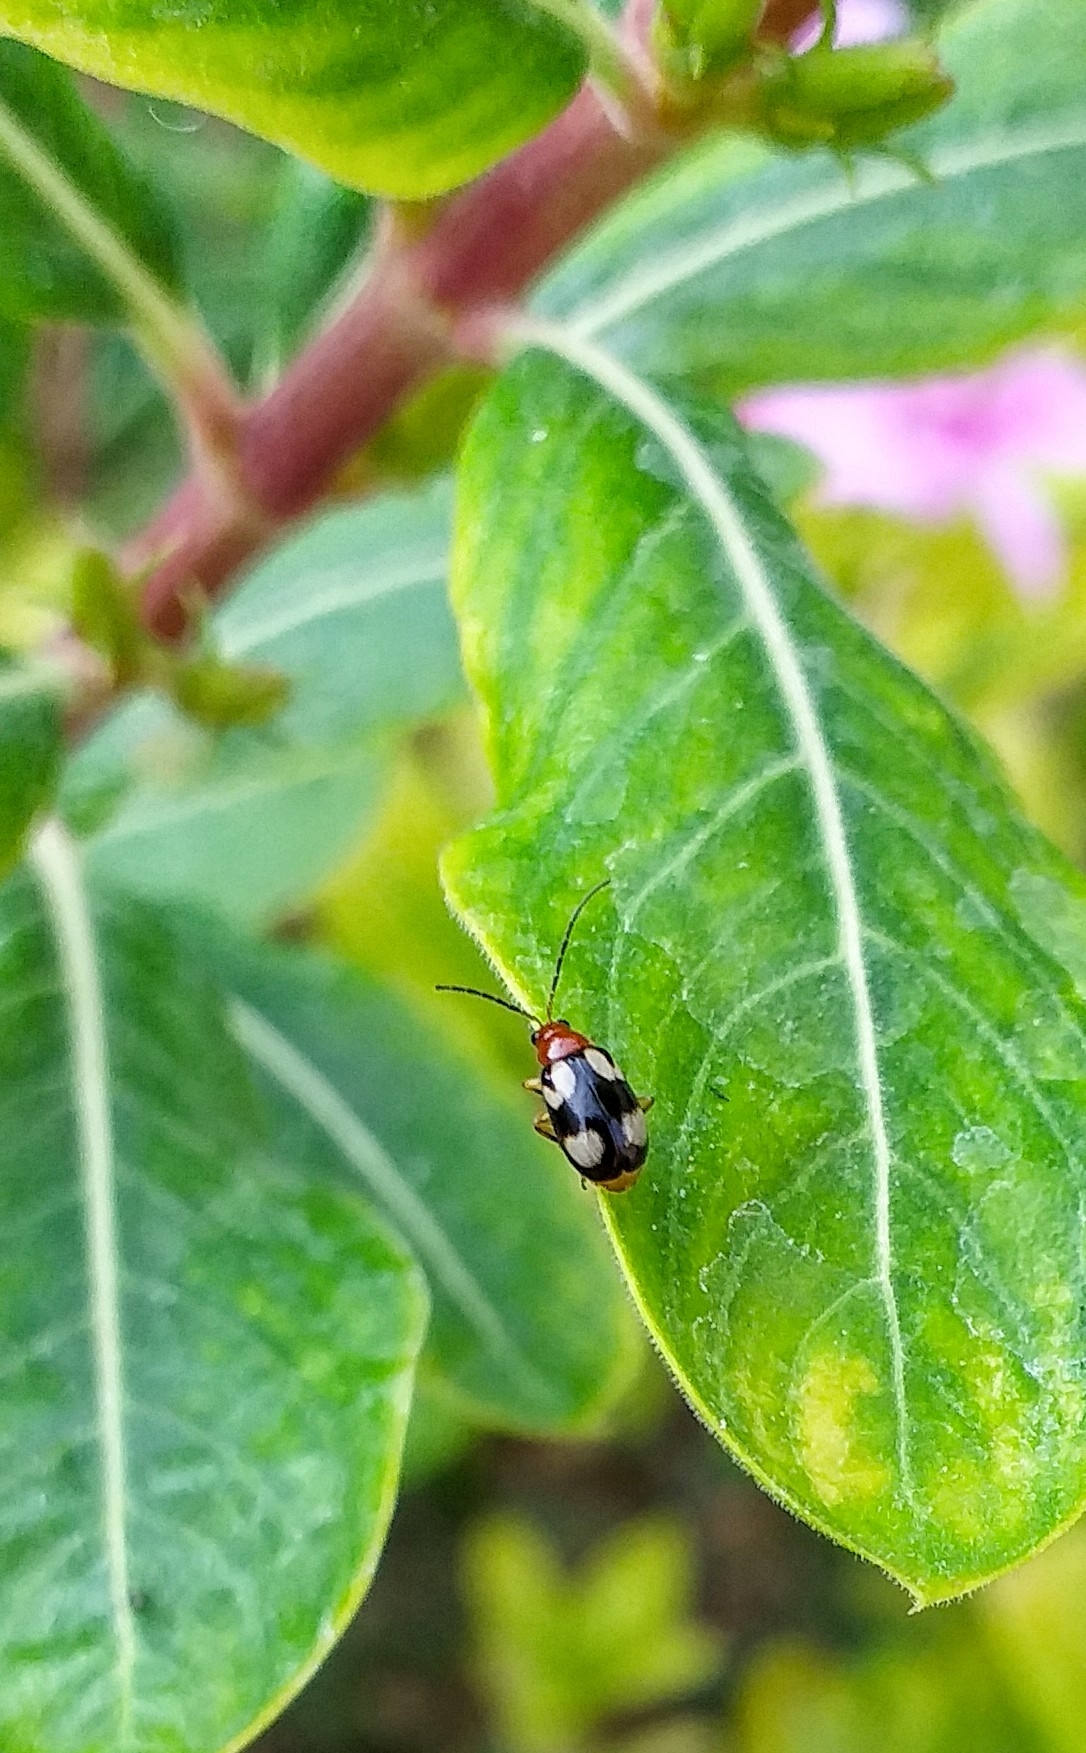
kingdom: Animalia
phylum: Arthropoda
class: Insecta
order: Coleoptera
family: Chrysomelidae
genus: Monolepta
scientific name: Monolepta signata
